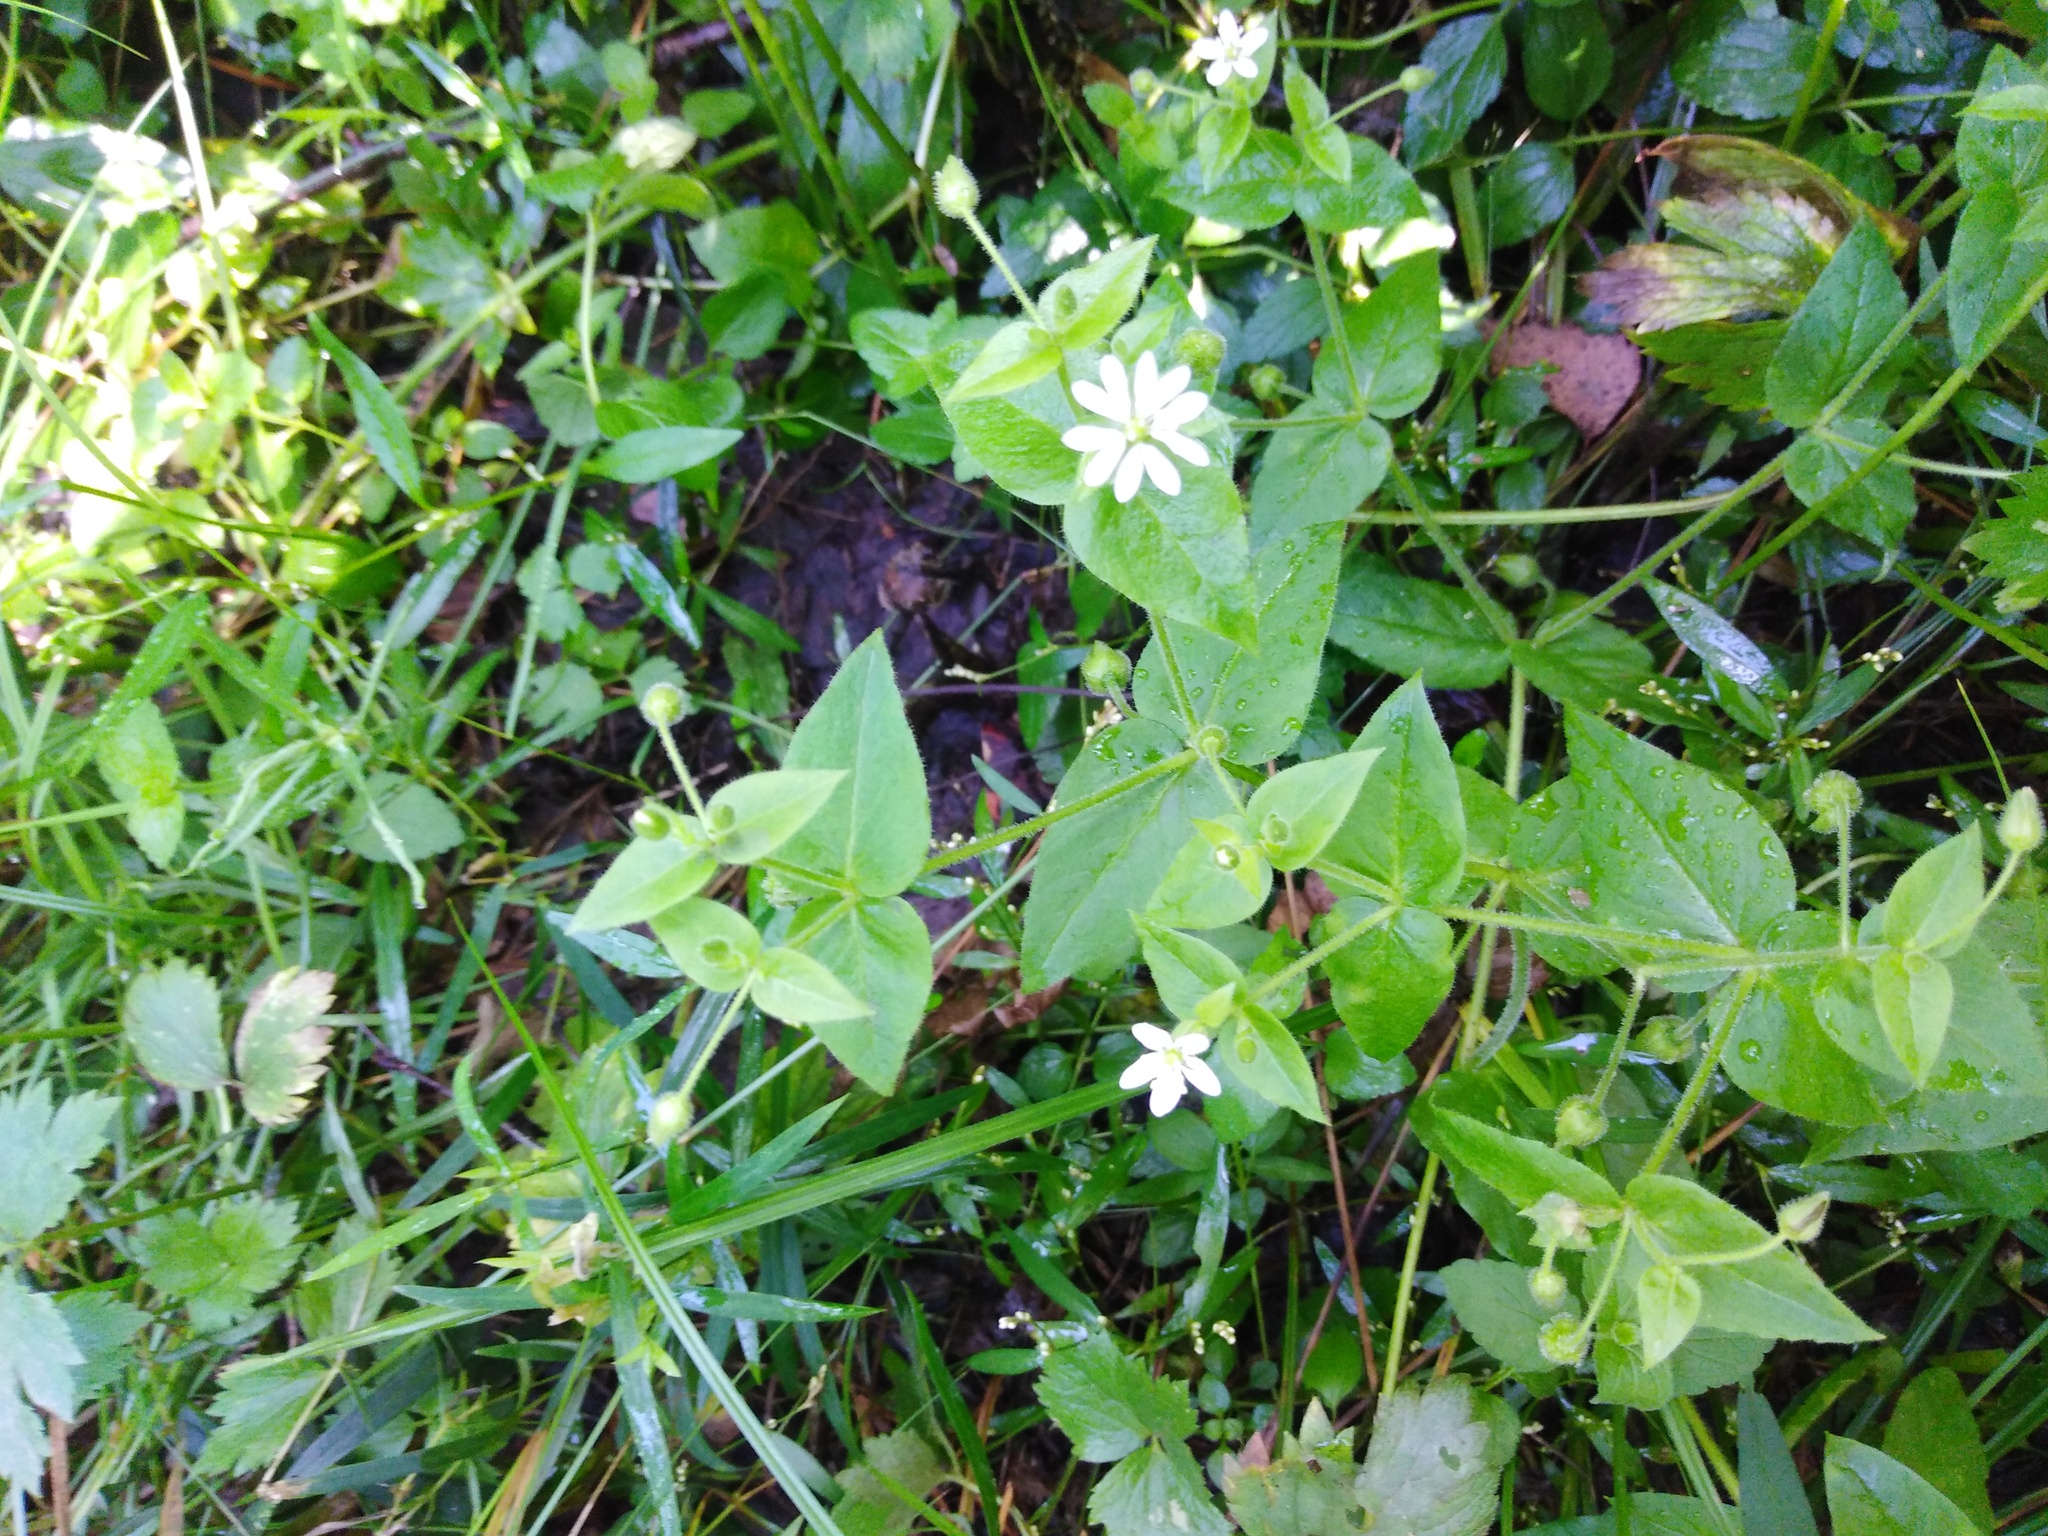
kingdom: Plantae
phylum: Tracheophyta
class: Magnoliopsida
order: Caryophyllales
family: Caryophyllaceae
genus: Stellaria
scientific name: Stellaria aquatica
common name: Water chickweed
